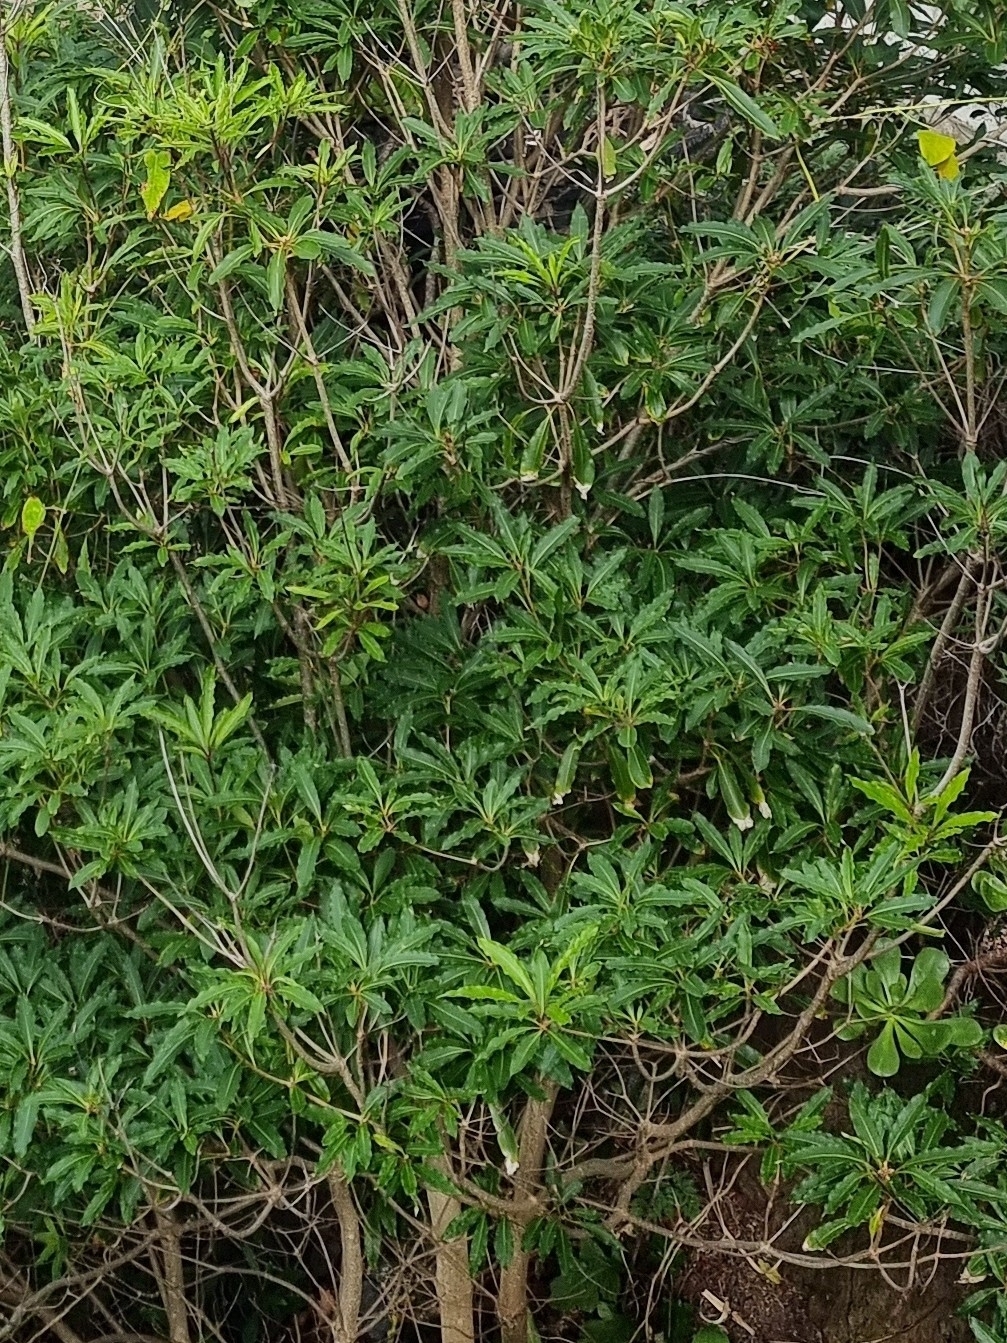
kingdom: Plantae
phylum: Tracheophyta
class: Magnoliopsida
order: Apiales
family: Pittosporaceae
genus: Pittosporum
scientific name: Pittosporum undulatum
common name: Australian cheesewood
